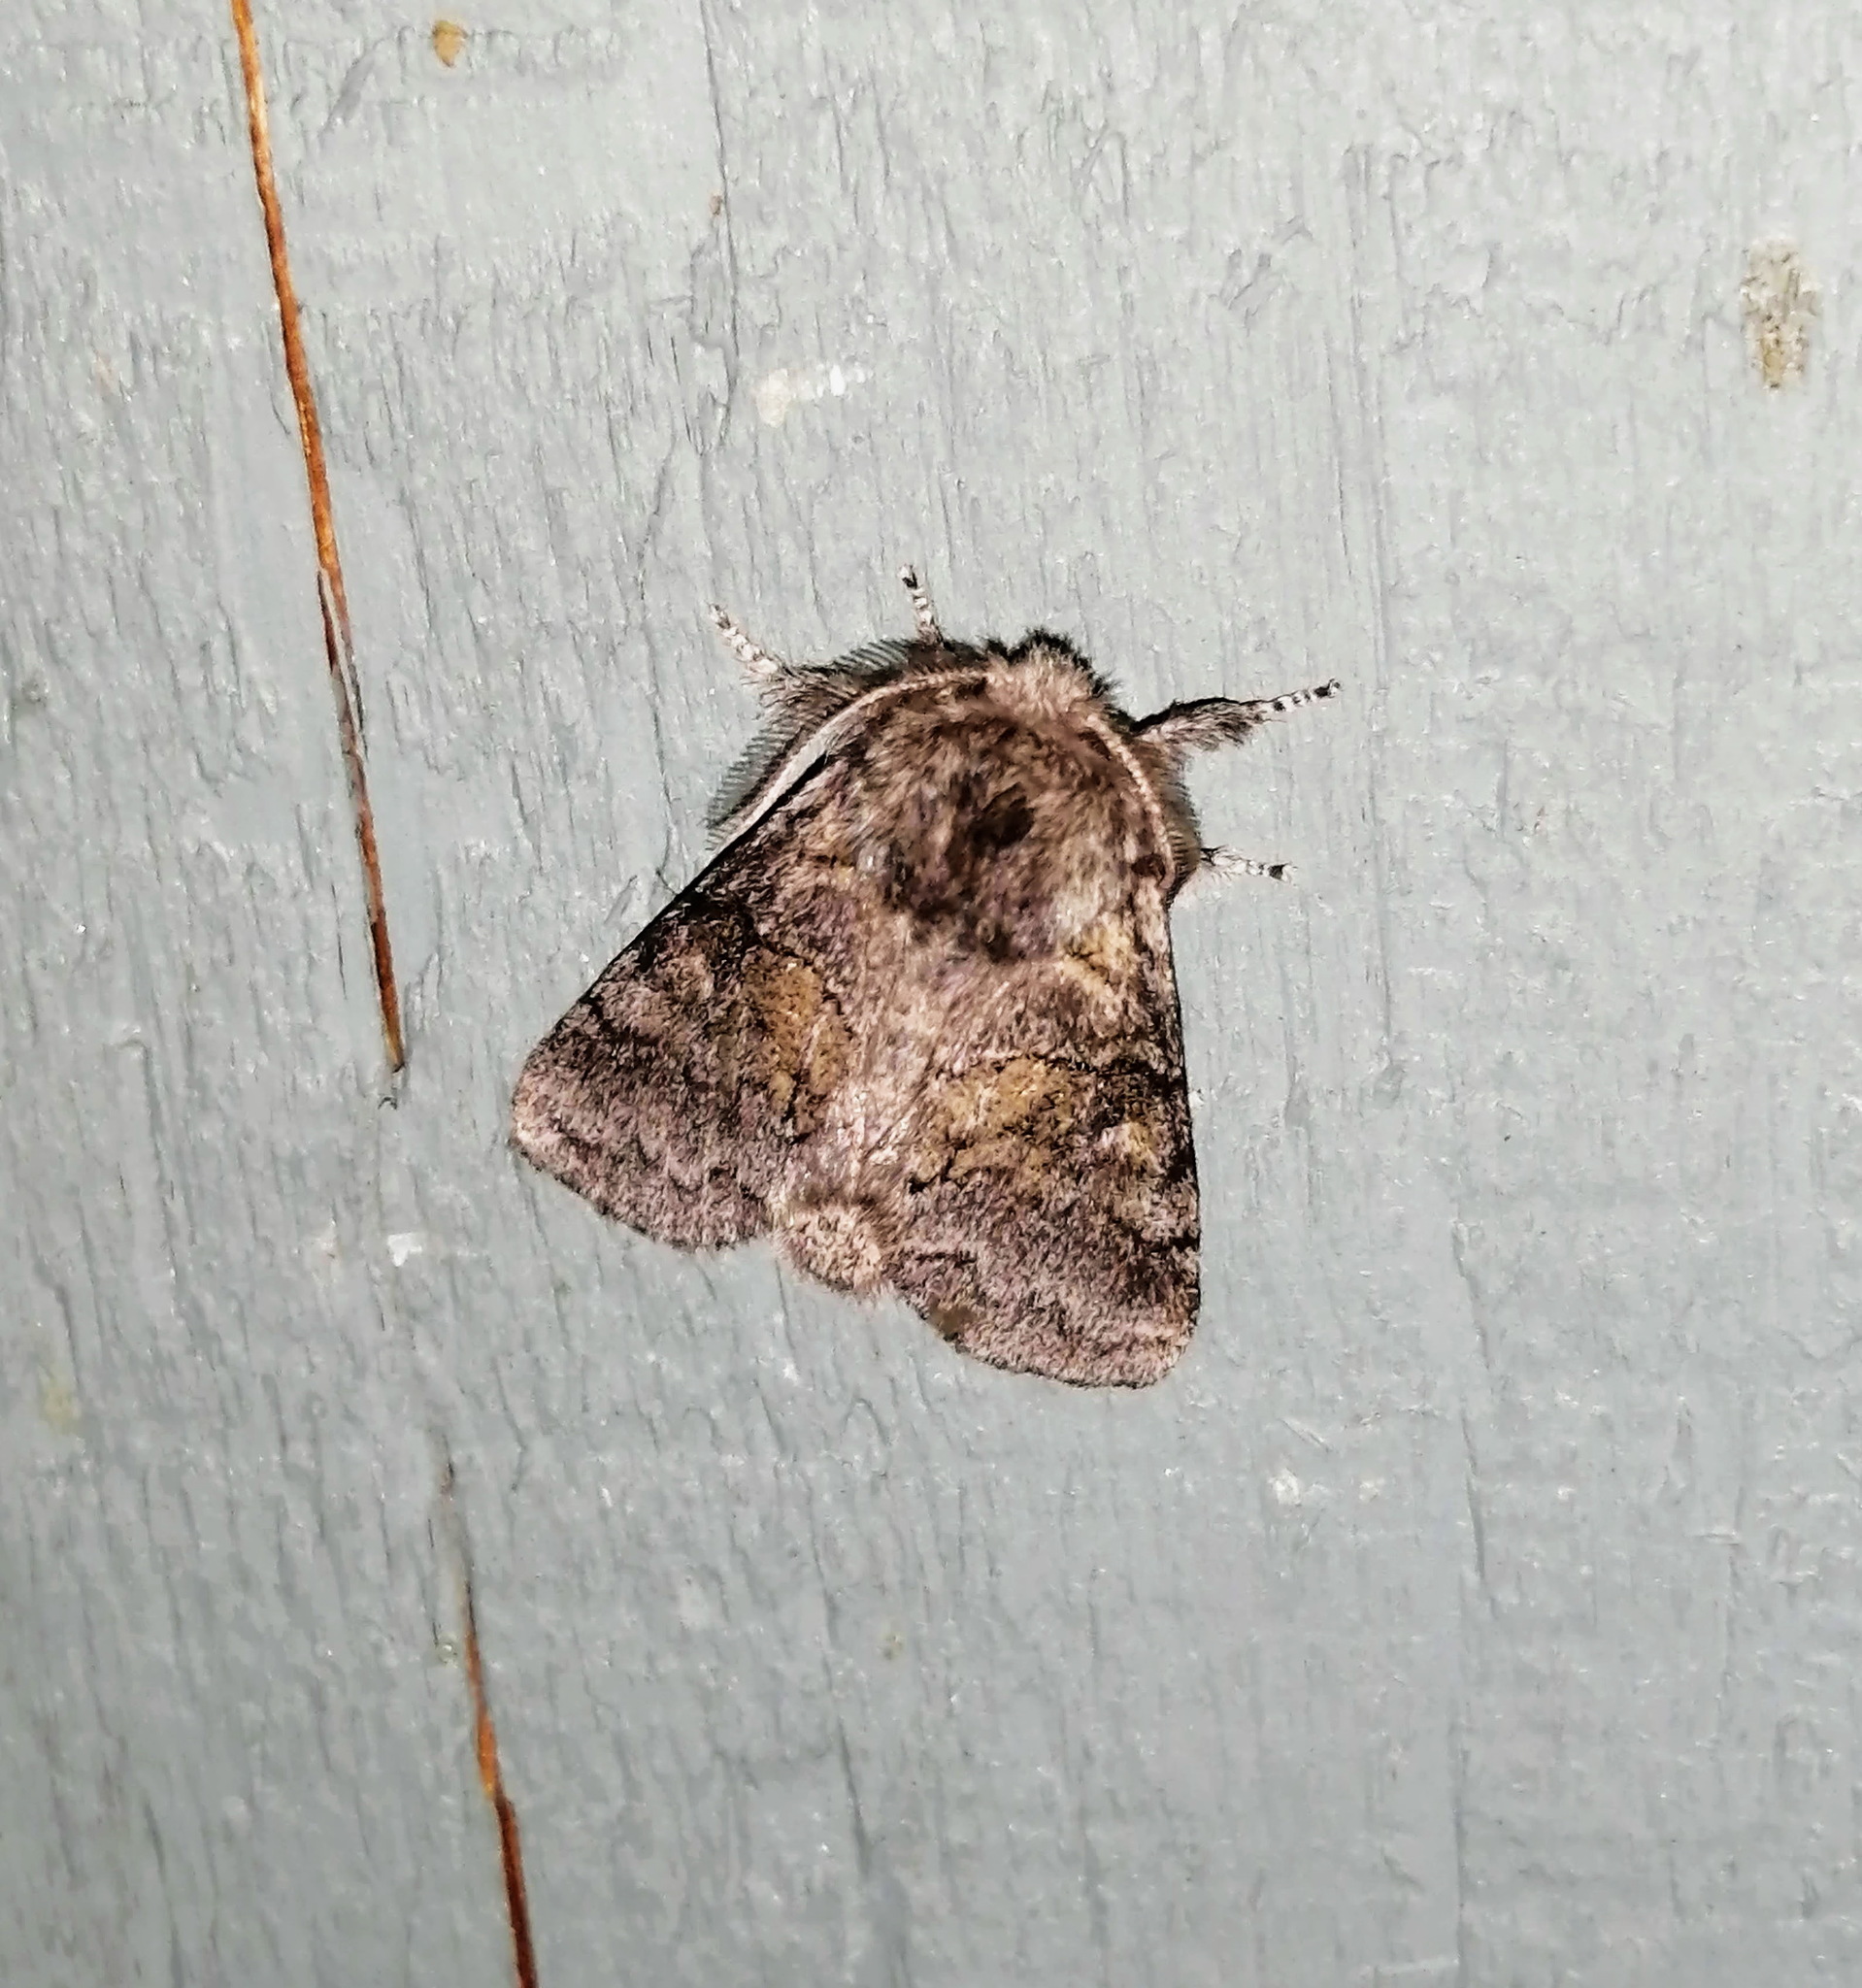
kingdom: Animalia
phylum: Arthropoda
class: Insecta
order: Lepidoptera
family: Notodontidae
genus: Gluphisia
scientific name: Gluphisia septentrionis
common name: Common gluphisia
